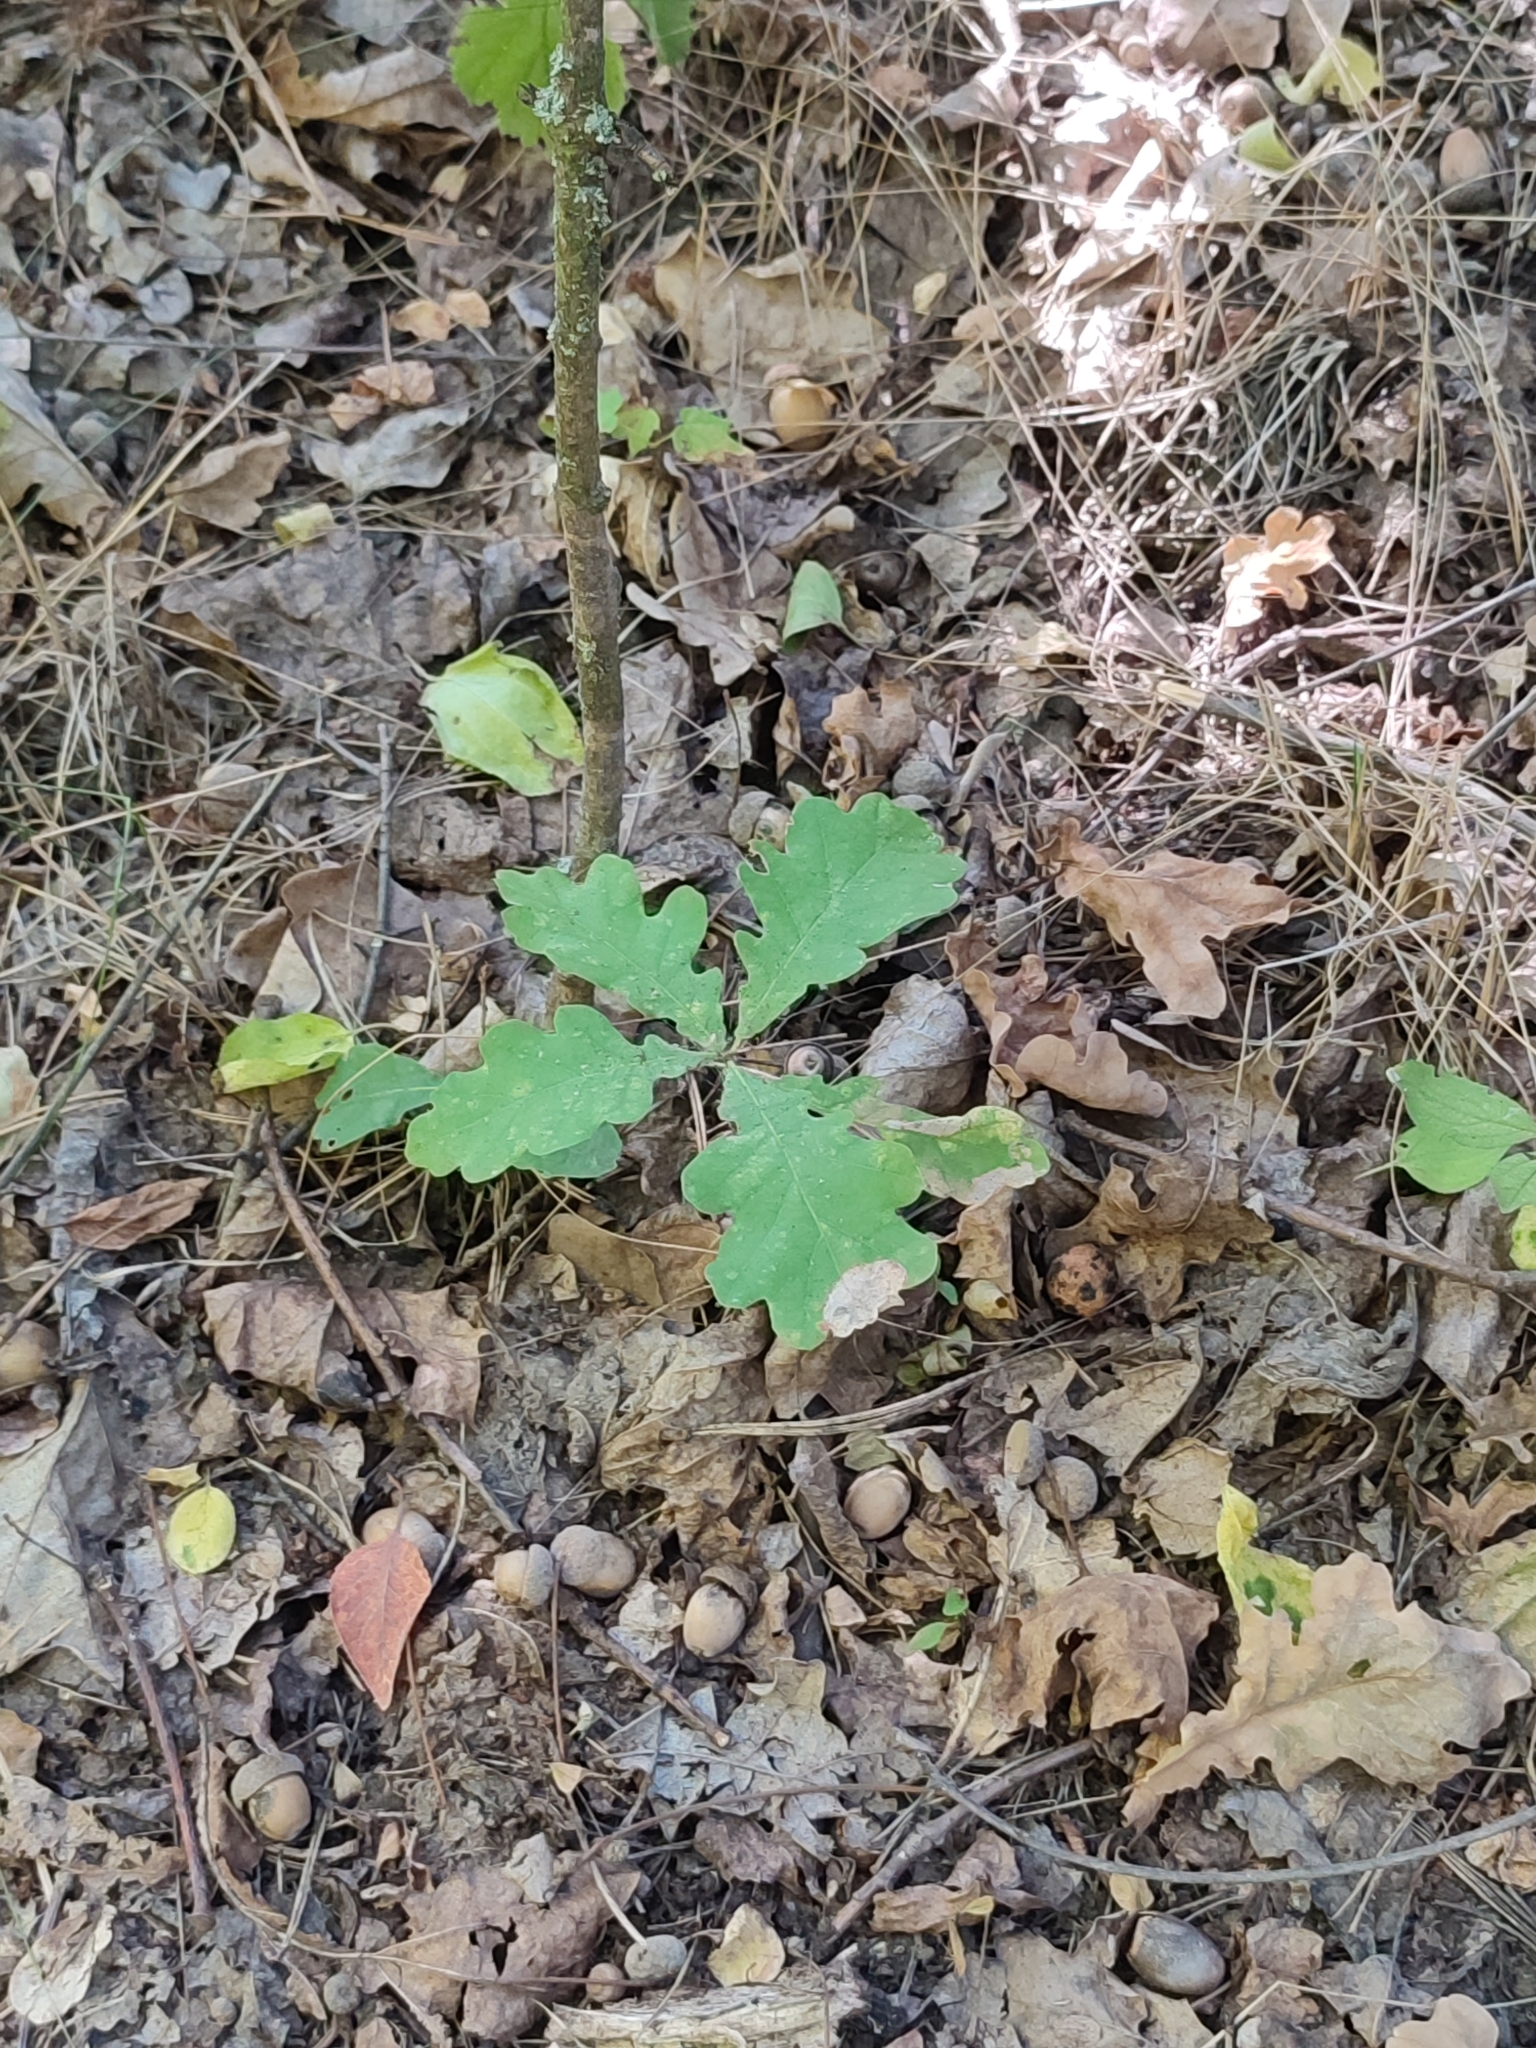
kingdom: Plantae
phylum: Tracheophyta
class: Magnoliopsida
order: Fagales
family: Fagaceae
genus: Quercus
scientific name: Quercus robur
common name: Pedunculate oak
